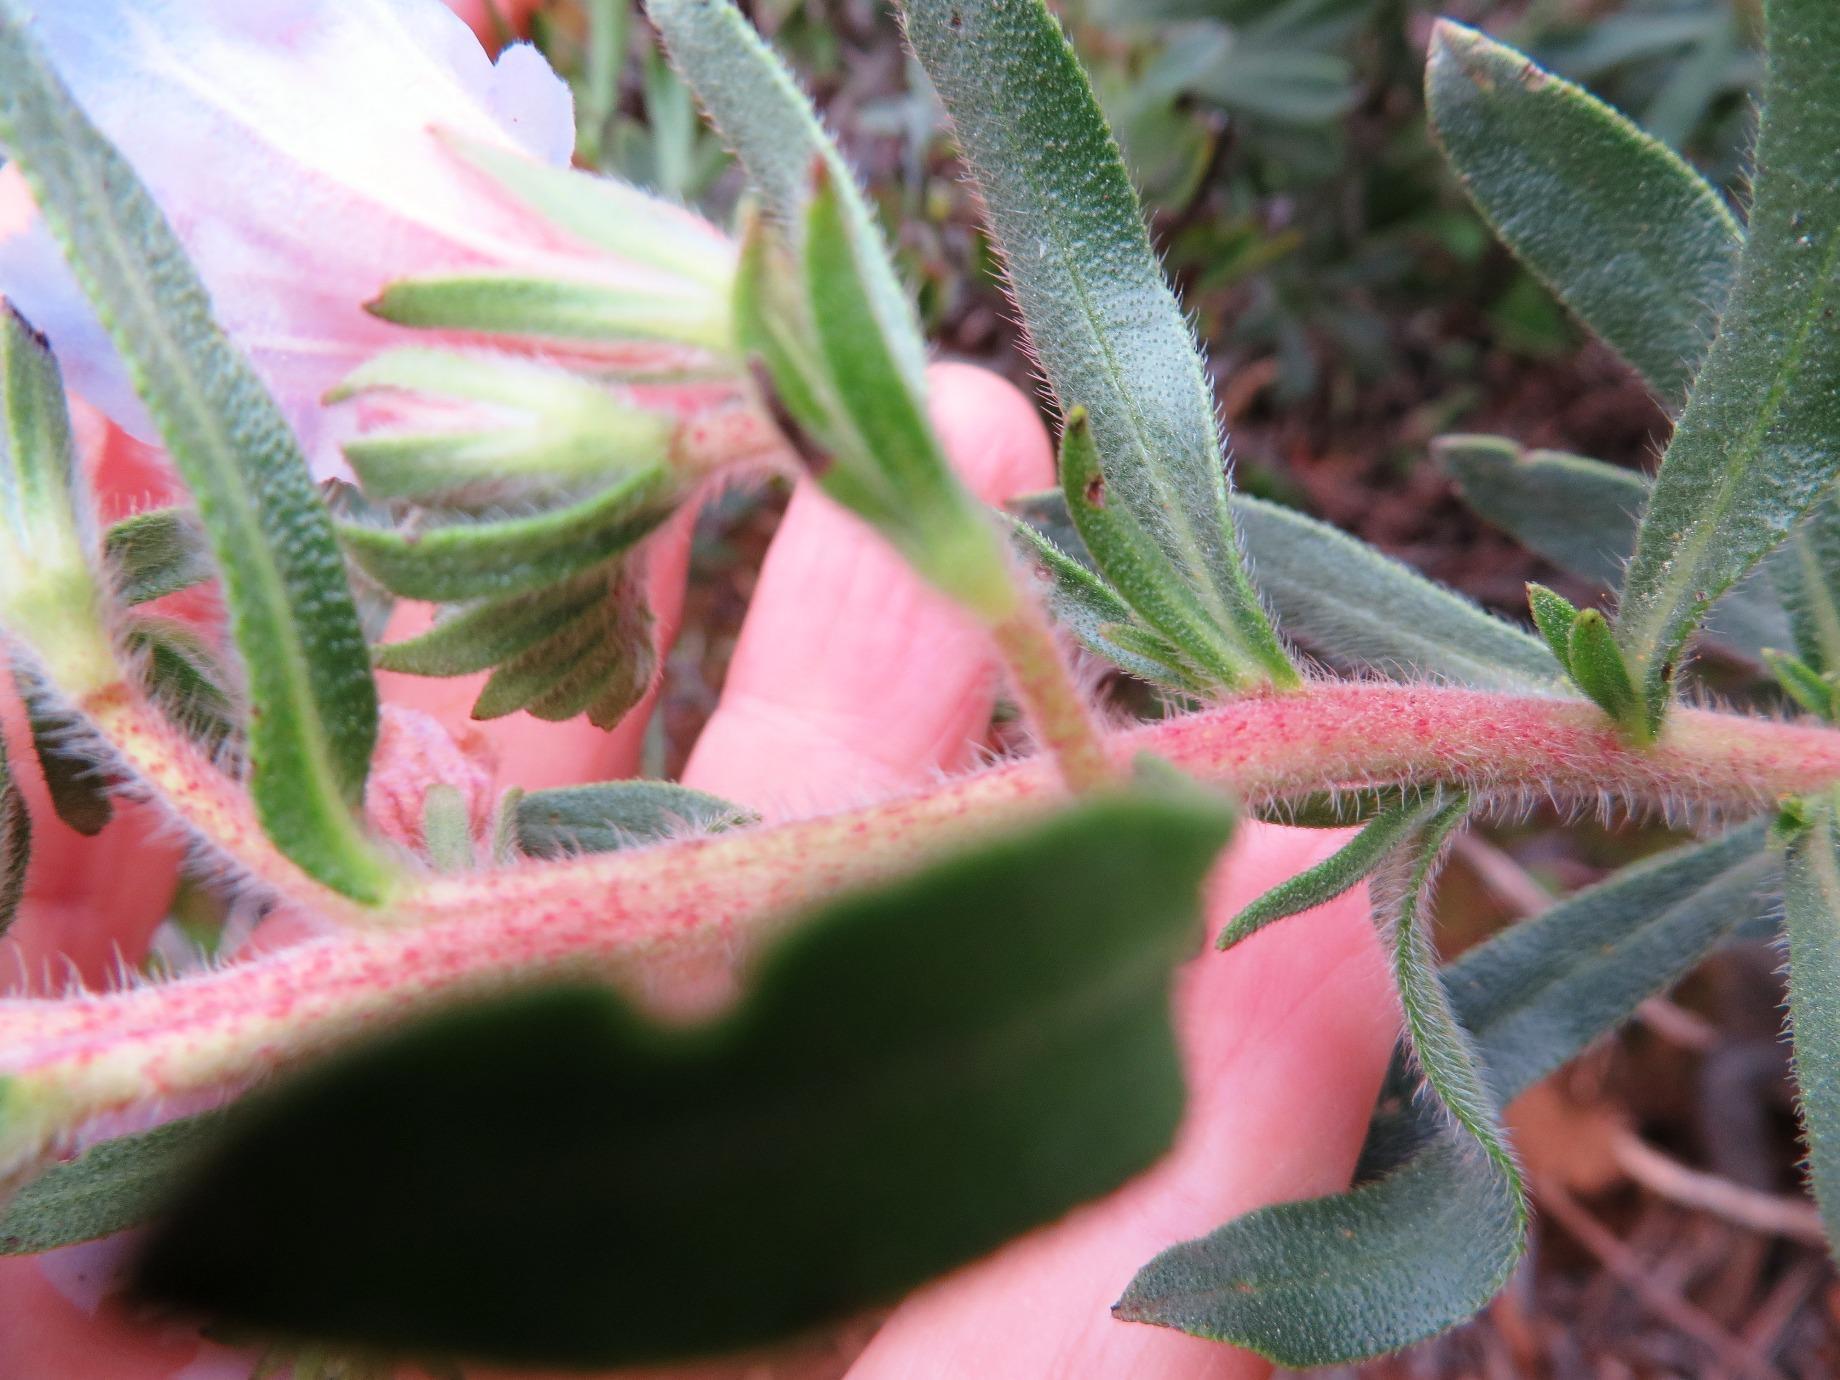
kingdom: Plantae
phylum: Tracheophyta
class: Magnoliopsida
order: Boraginales
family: Boraginaceae
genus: Lobostemon
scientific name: Lobostemon fruticosus
